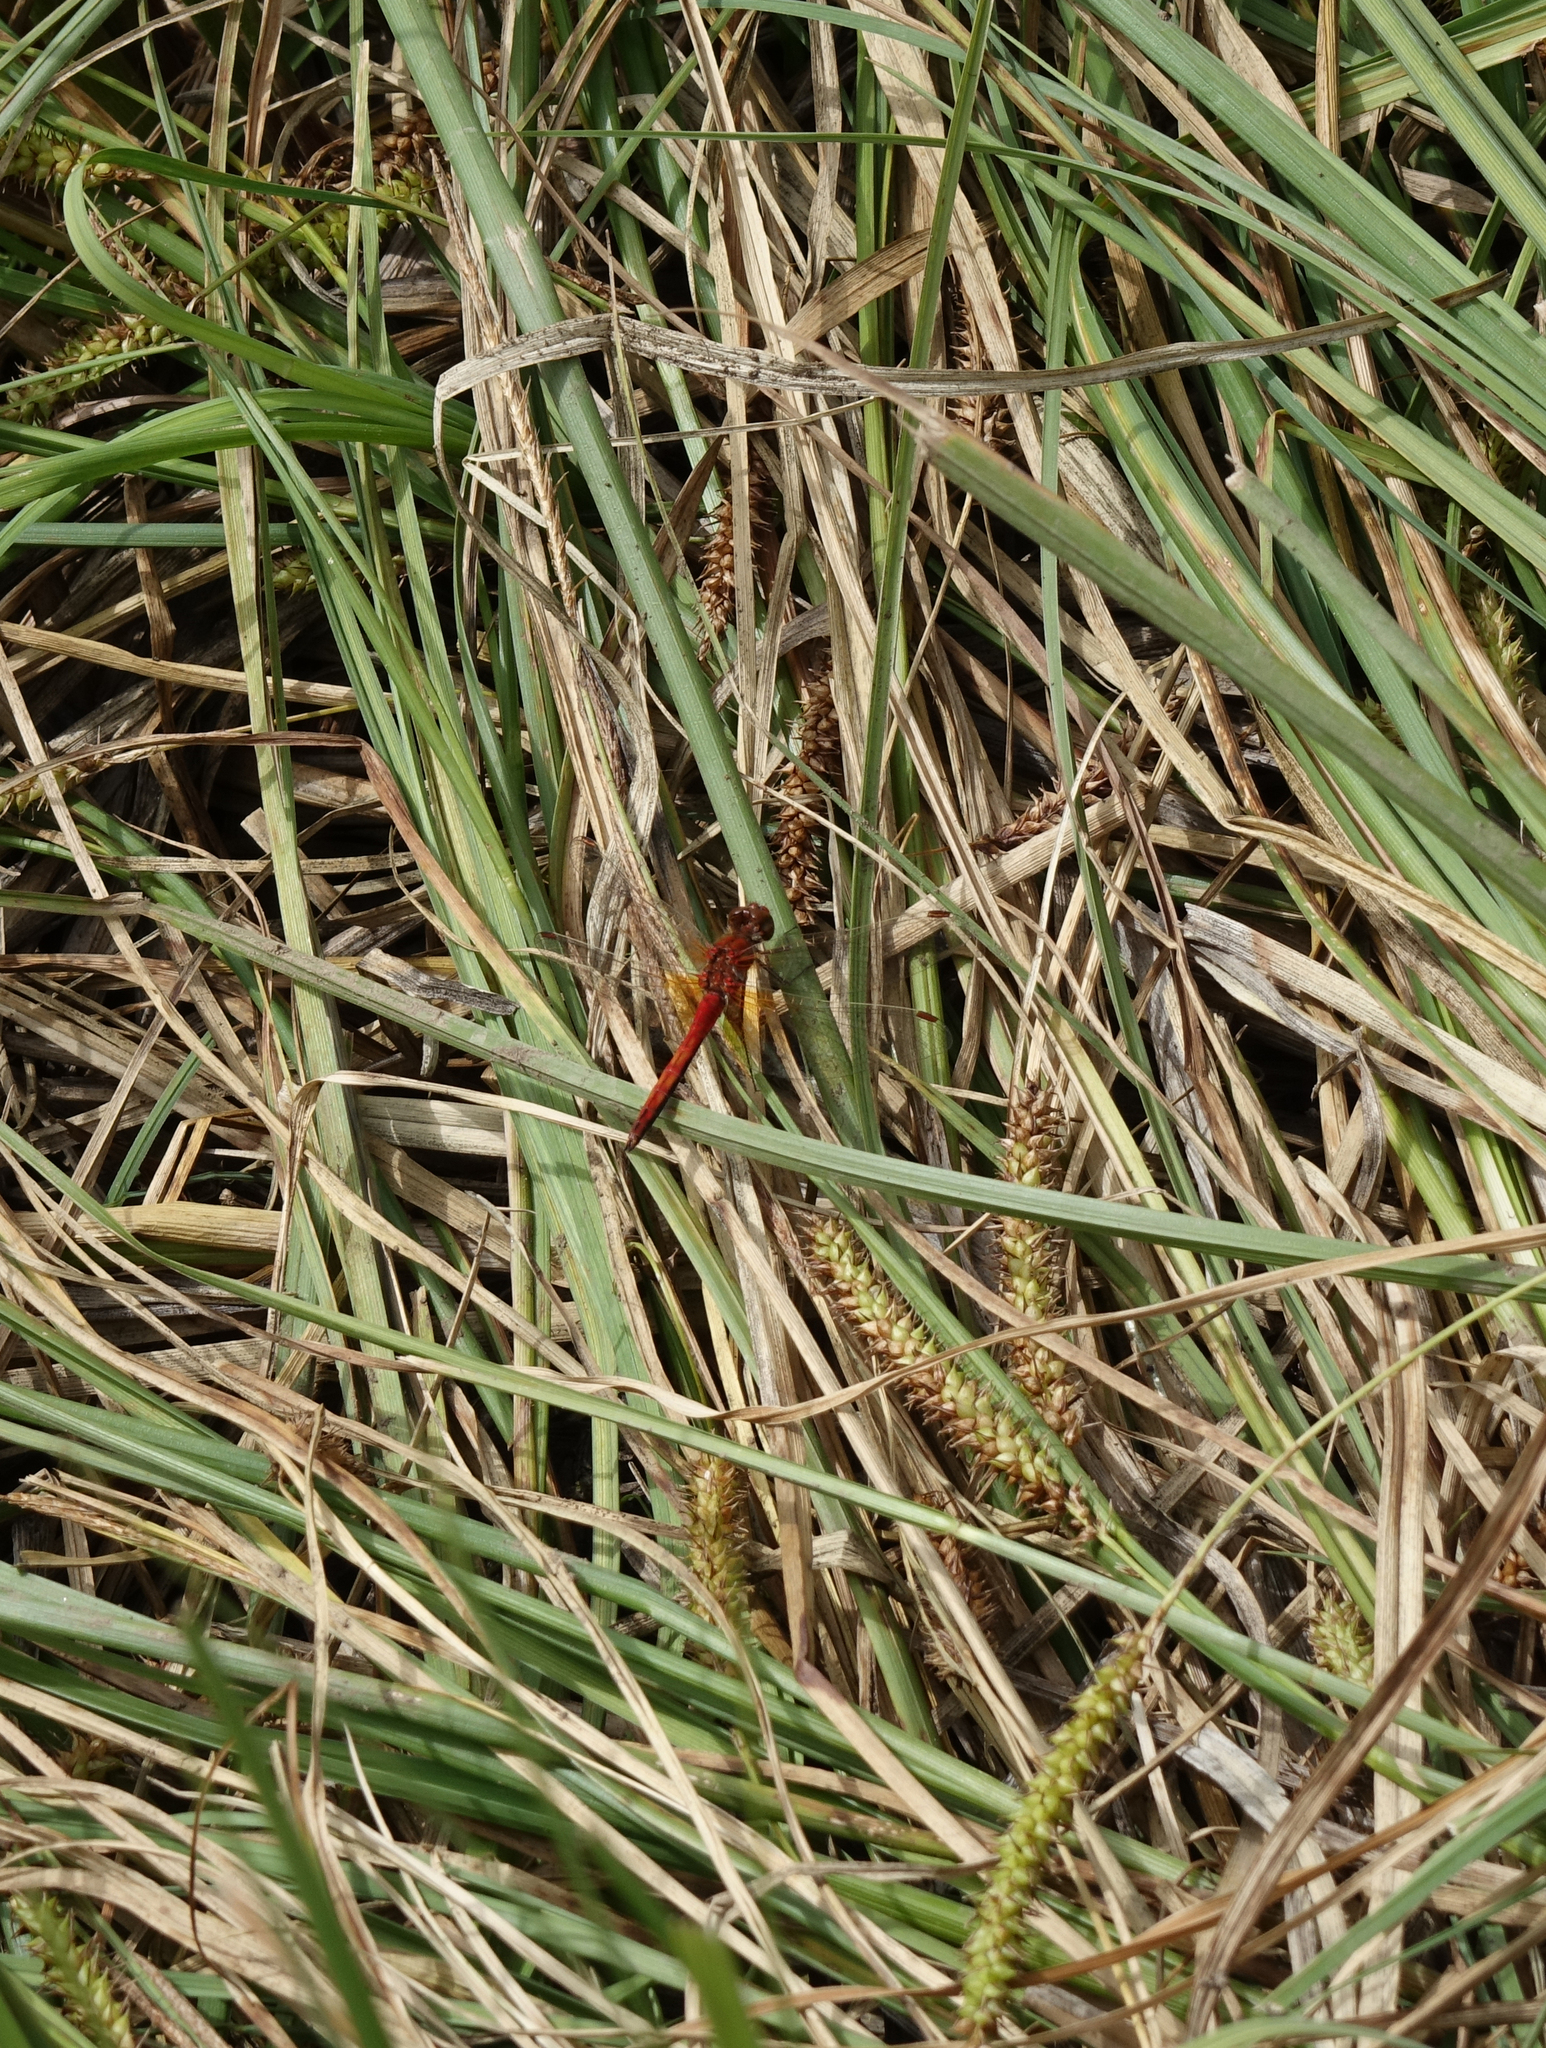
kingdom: Plantae
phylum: Tracheophyta
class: Liliopsida
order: Poales
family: Cyperaceae
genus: Carex
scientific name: Carex rostrata
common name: Bottle sedge
